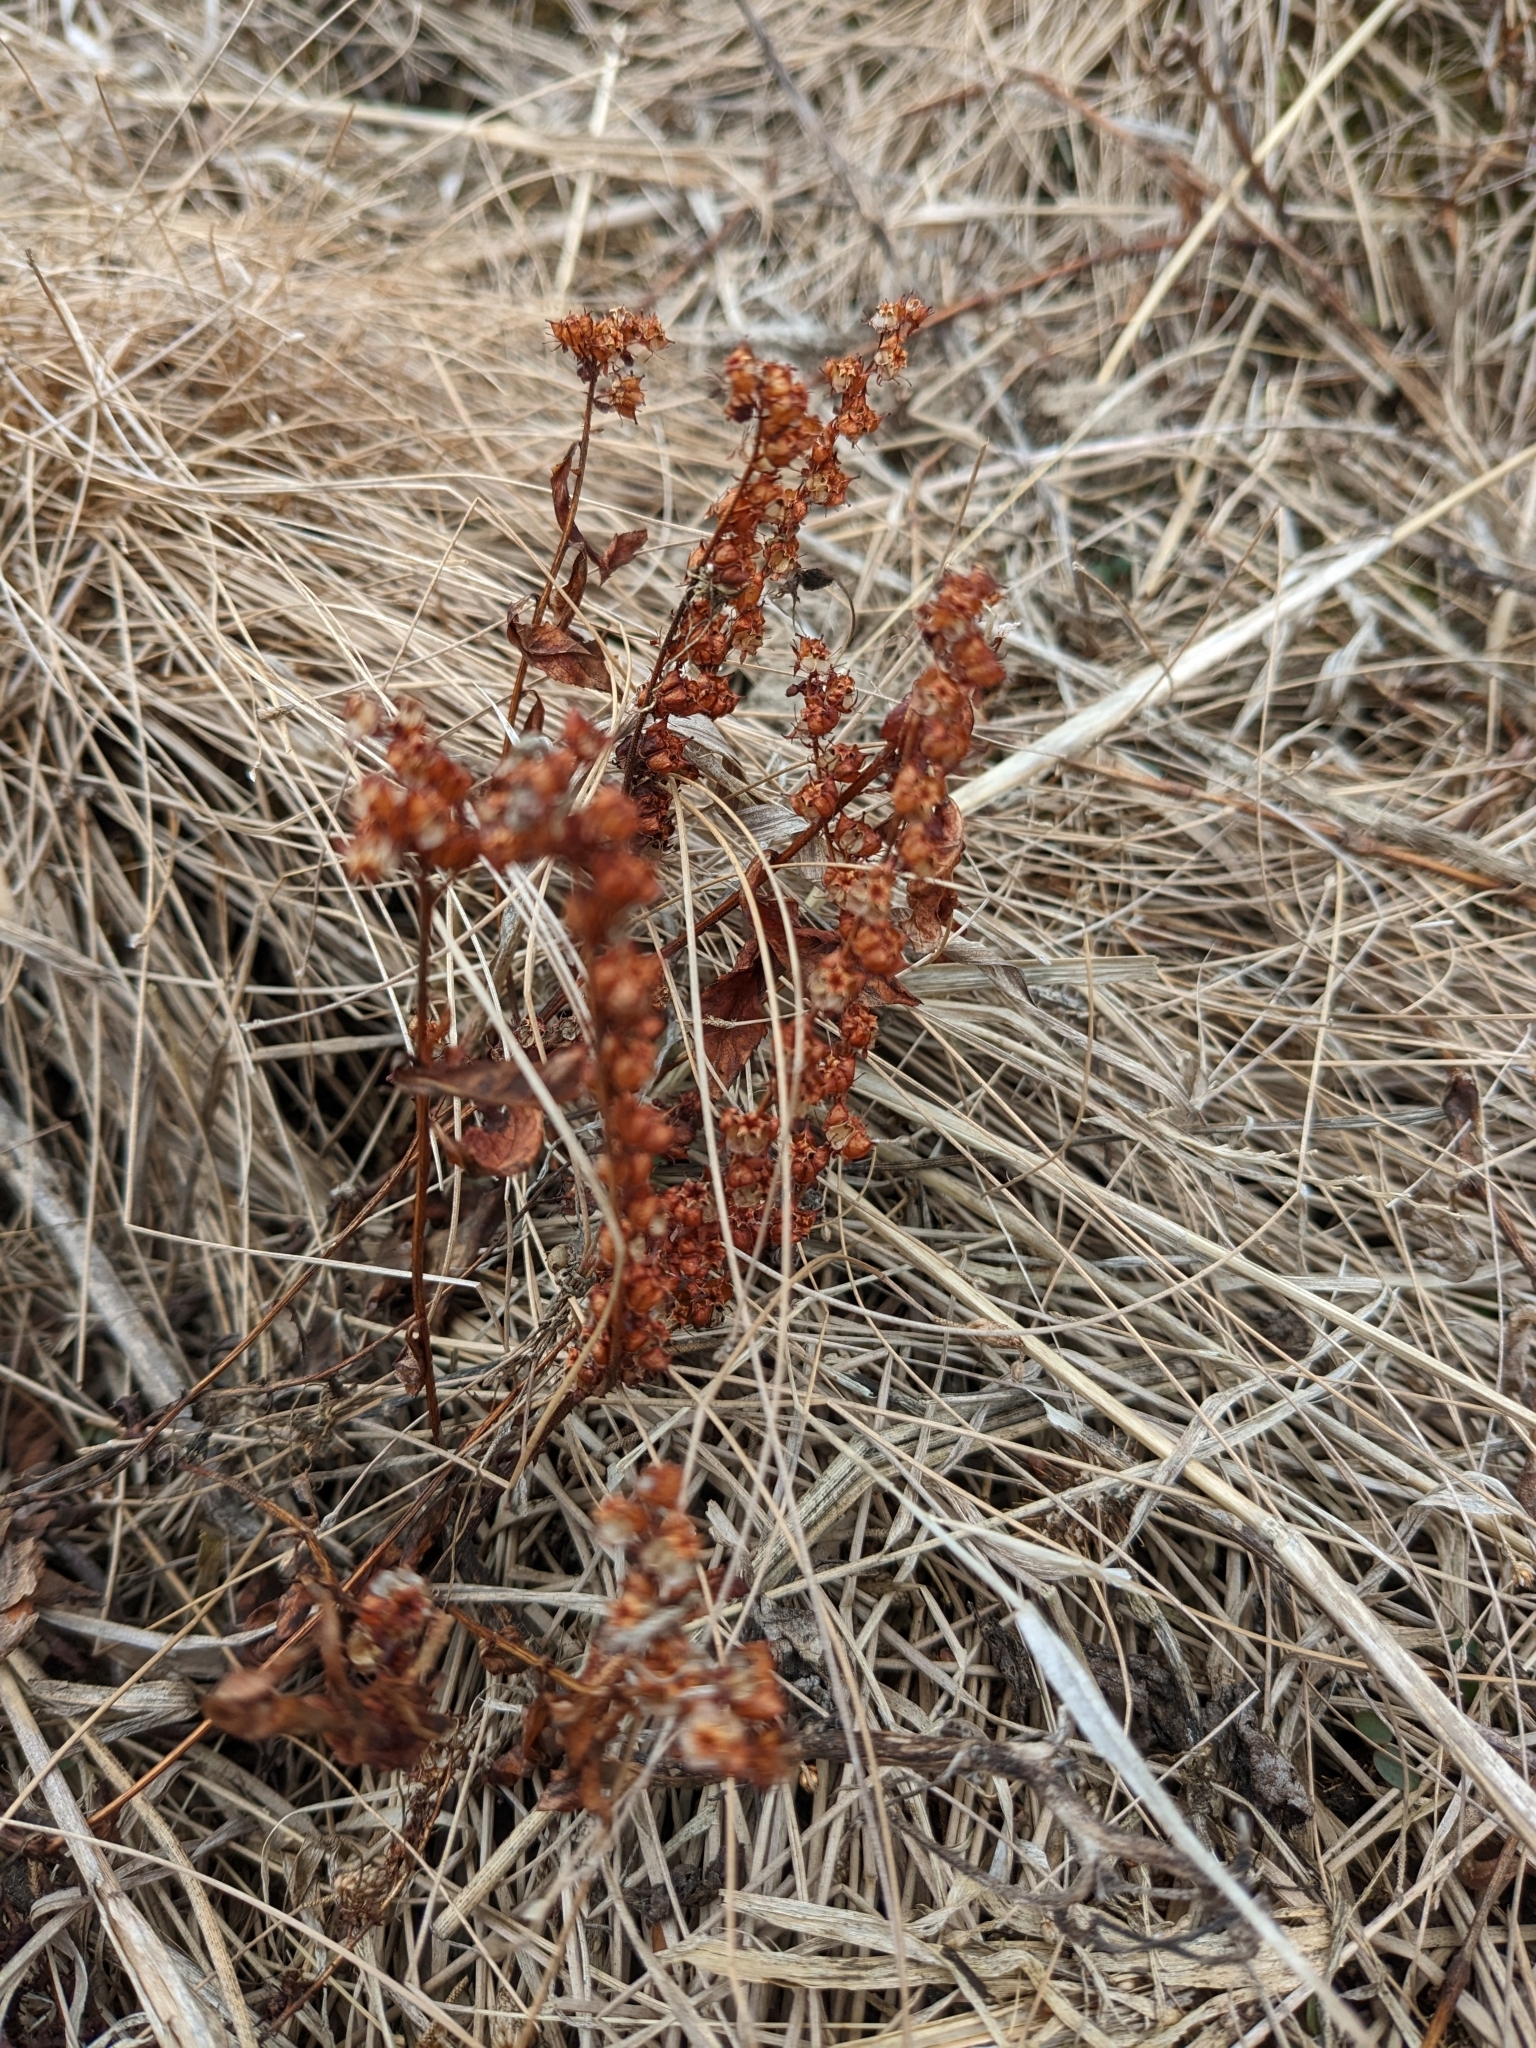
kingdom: Plantae
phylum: Tracheophyta
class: Magnoliopsida
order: Saxifragales
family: Penthoraceae
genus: Penthorum
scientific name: Penthorum sedoides
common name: Ditch stonecrop
